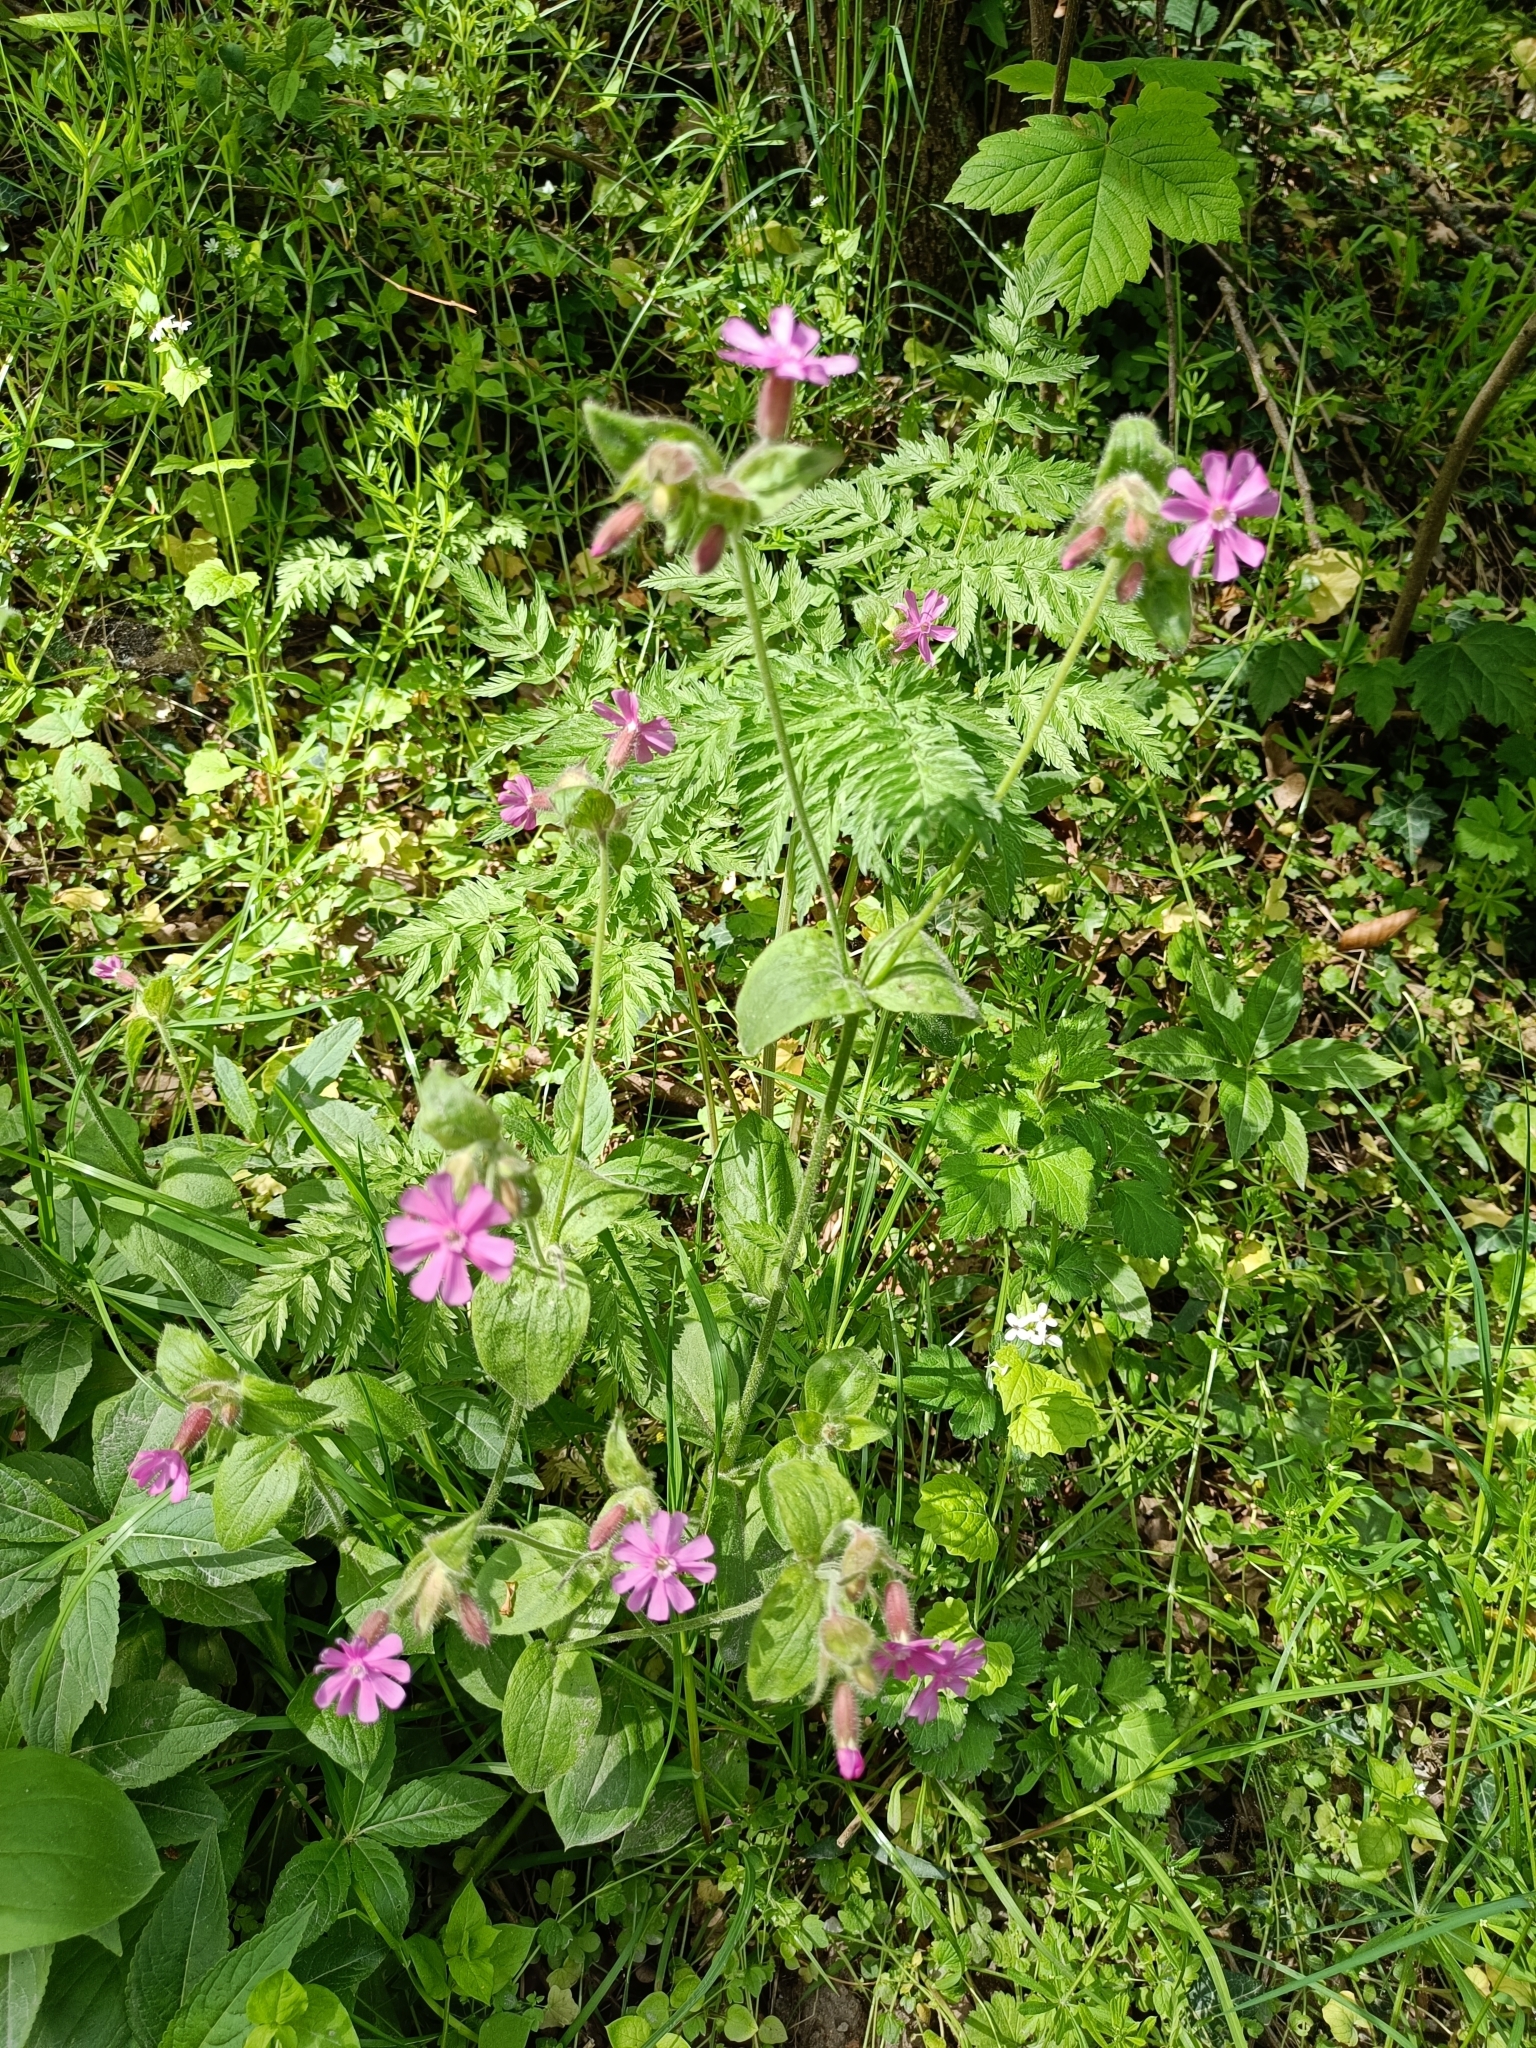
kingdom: Plantae
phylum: Tracheophyta
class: Magnoliopsida
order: Caryophyllales
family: Caryophyllaceae
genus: Silene
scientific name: Silene dioica
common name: Red campion
